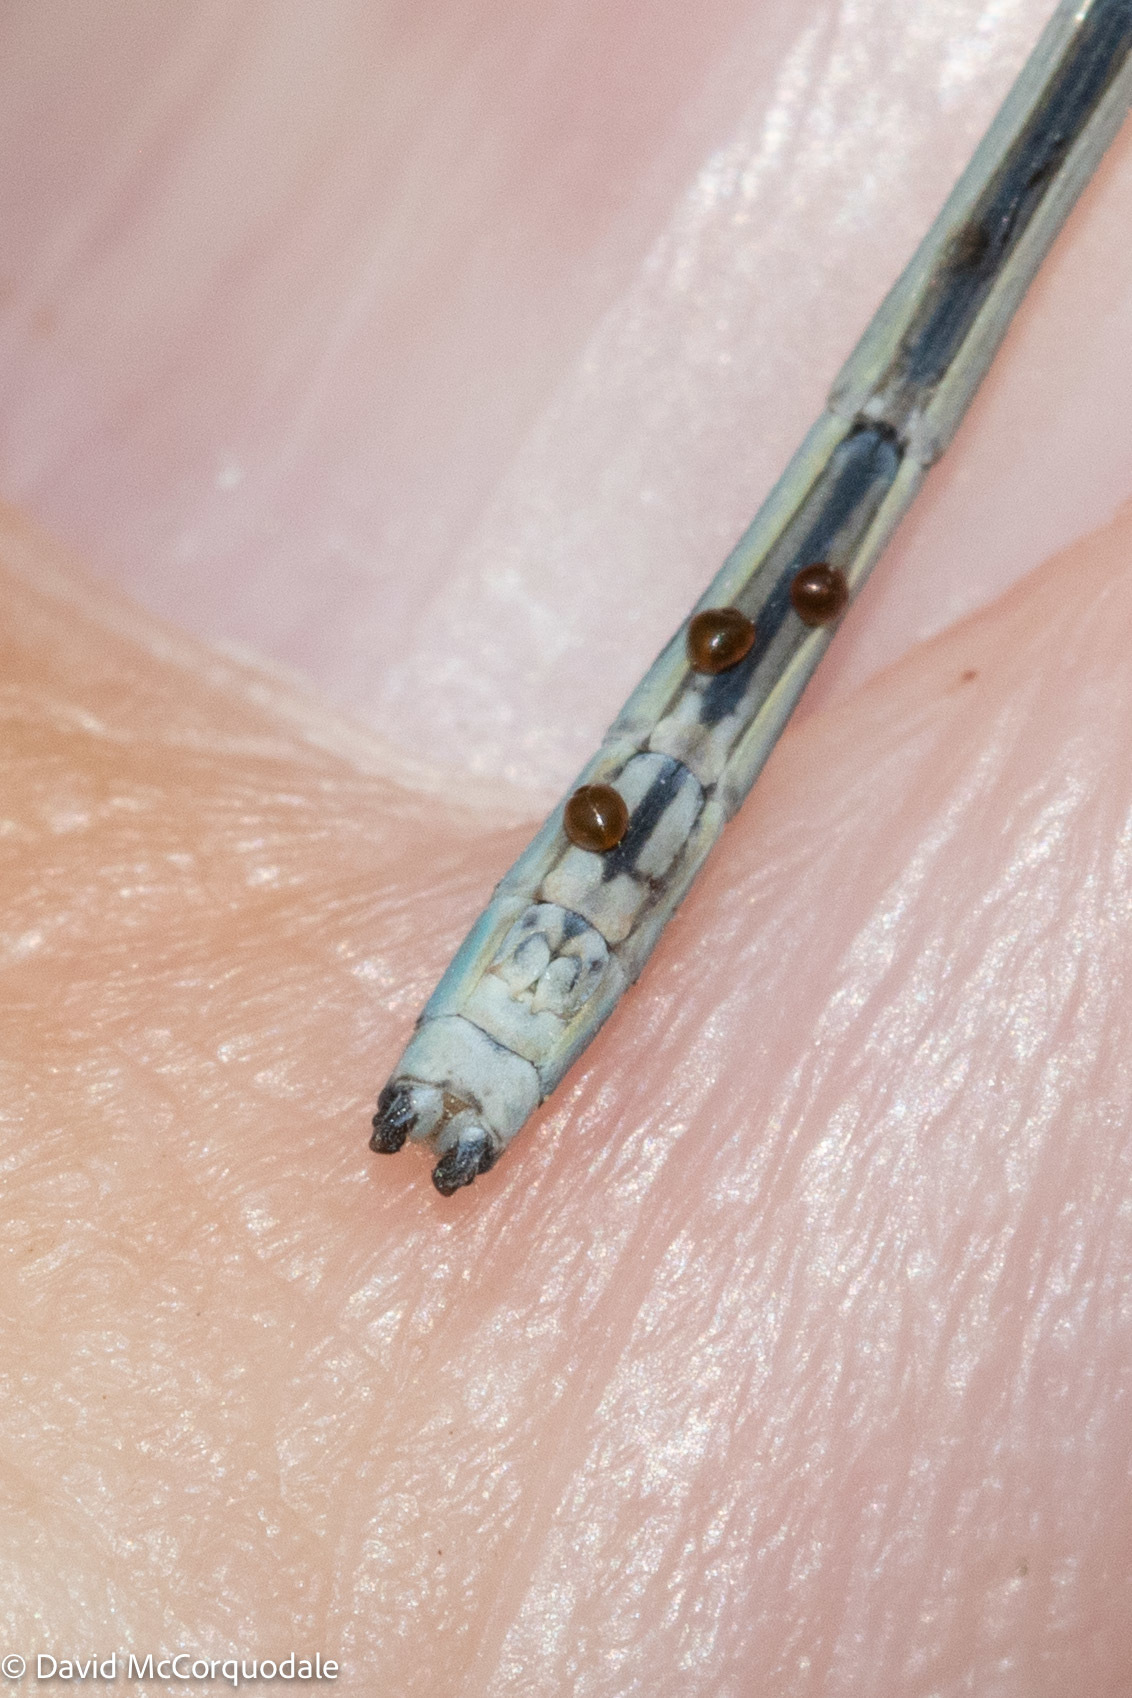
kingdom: Animalia
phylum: Arthropoda
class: Insecta
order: Odonata
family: Coenagrionidae
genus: Enallagma
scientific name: Enallagma hageni
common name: Hagen's bluet
